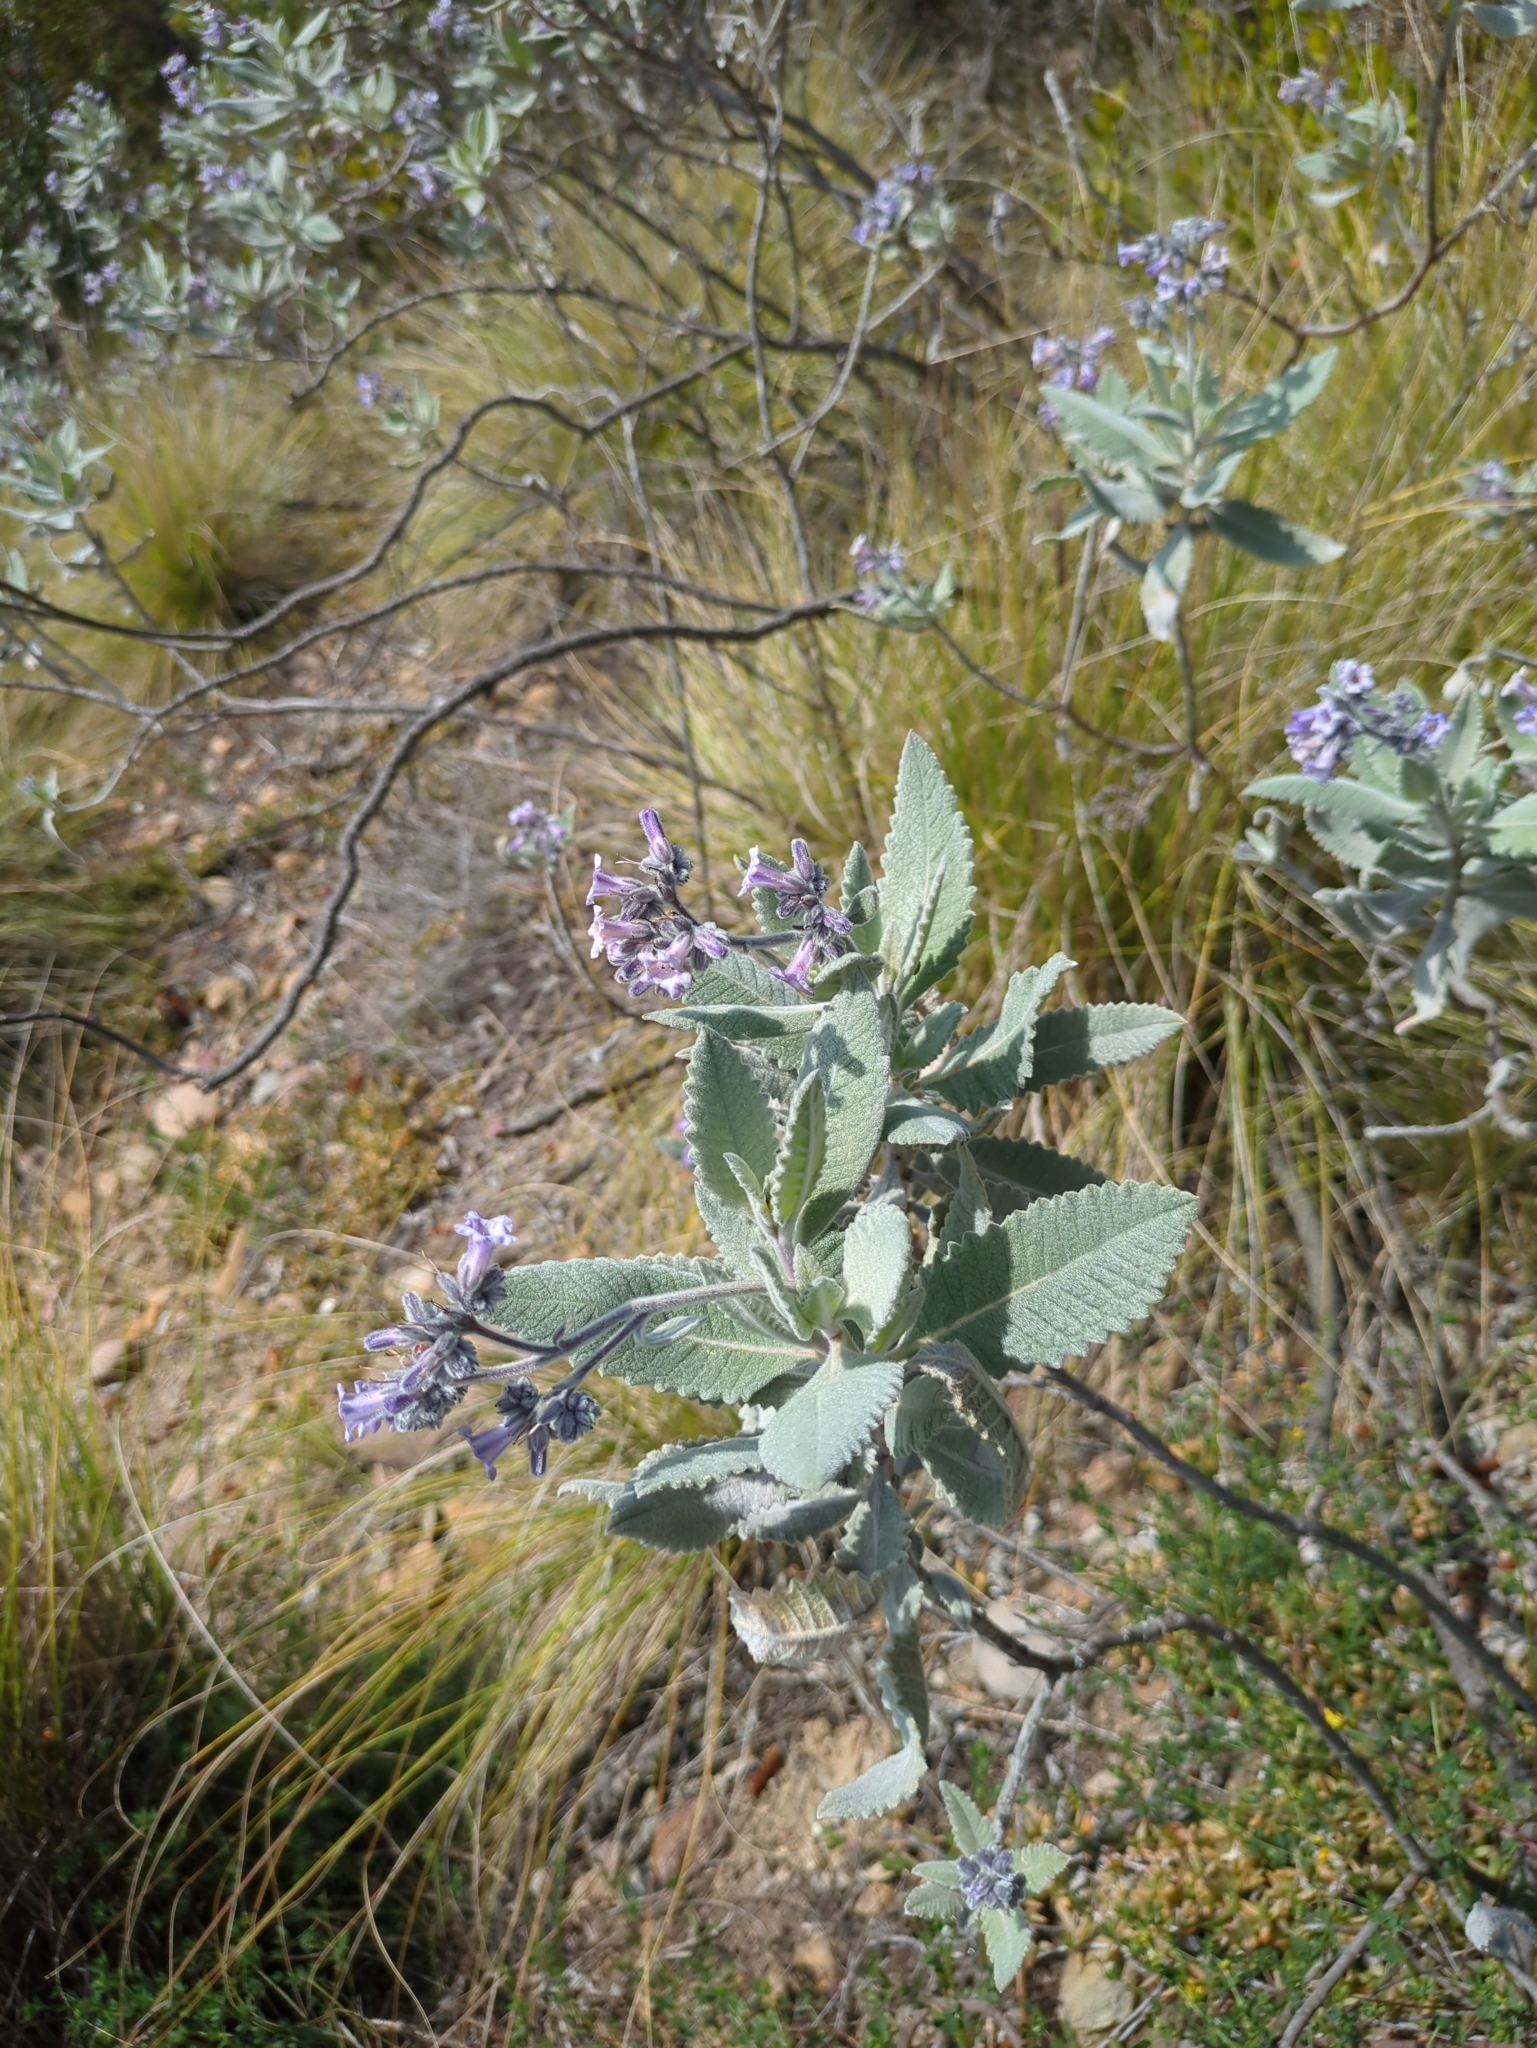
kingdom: Plantae
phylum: Tracheophyta
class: Magnoliopsida
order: Boraginales
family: Namaceae
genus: Eriodictyon
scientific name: Eriodictyon crassifolium
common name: Thick-leaf yerba-santa
